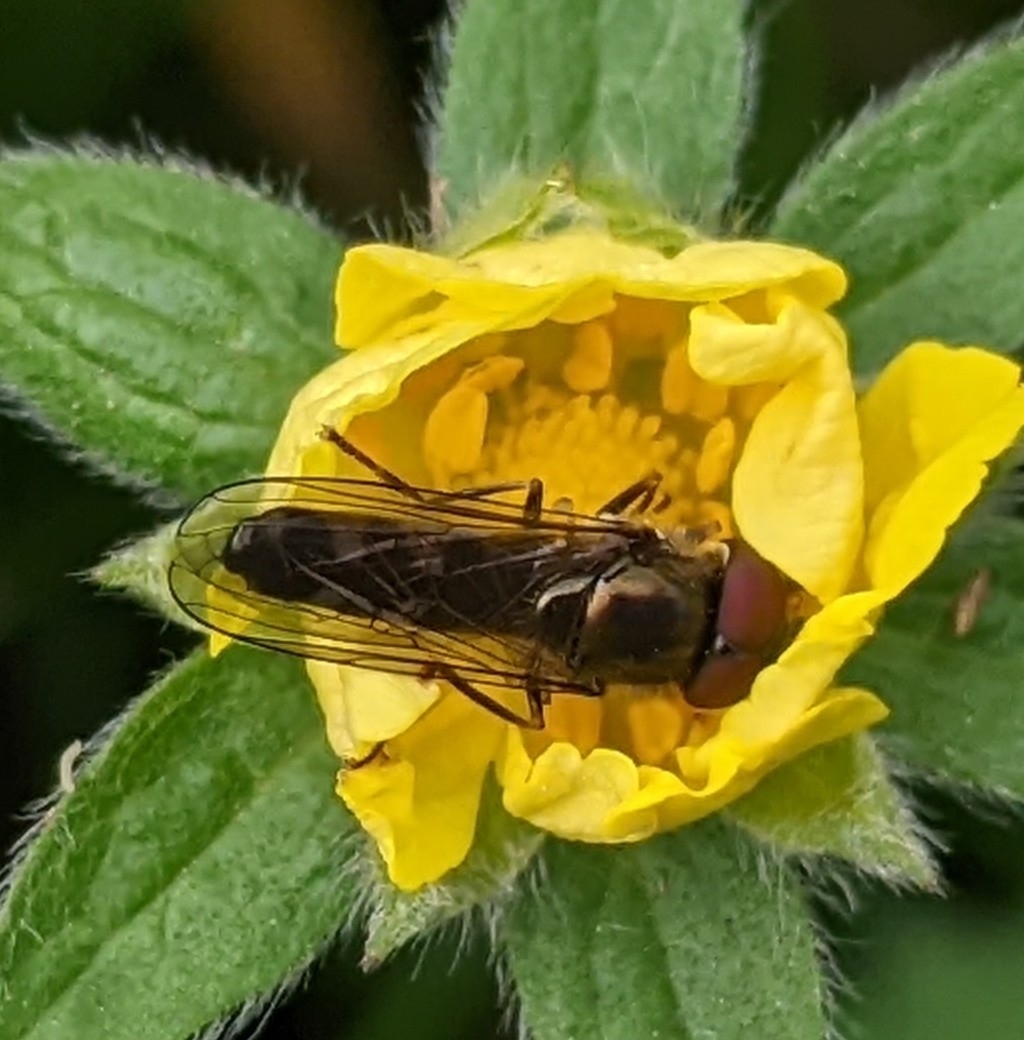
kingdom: Animalia
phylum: Arthropoda
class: Insecta
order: Diptera
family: Syrphidae
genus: Platycheirus
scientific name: Platycheirus
